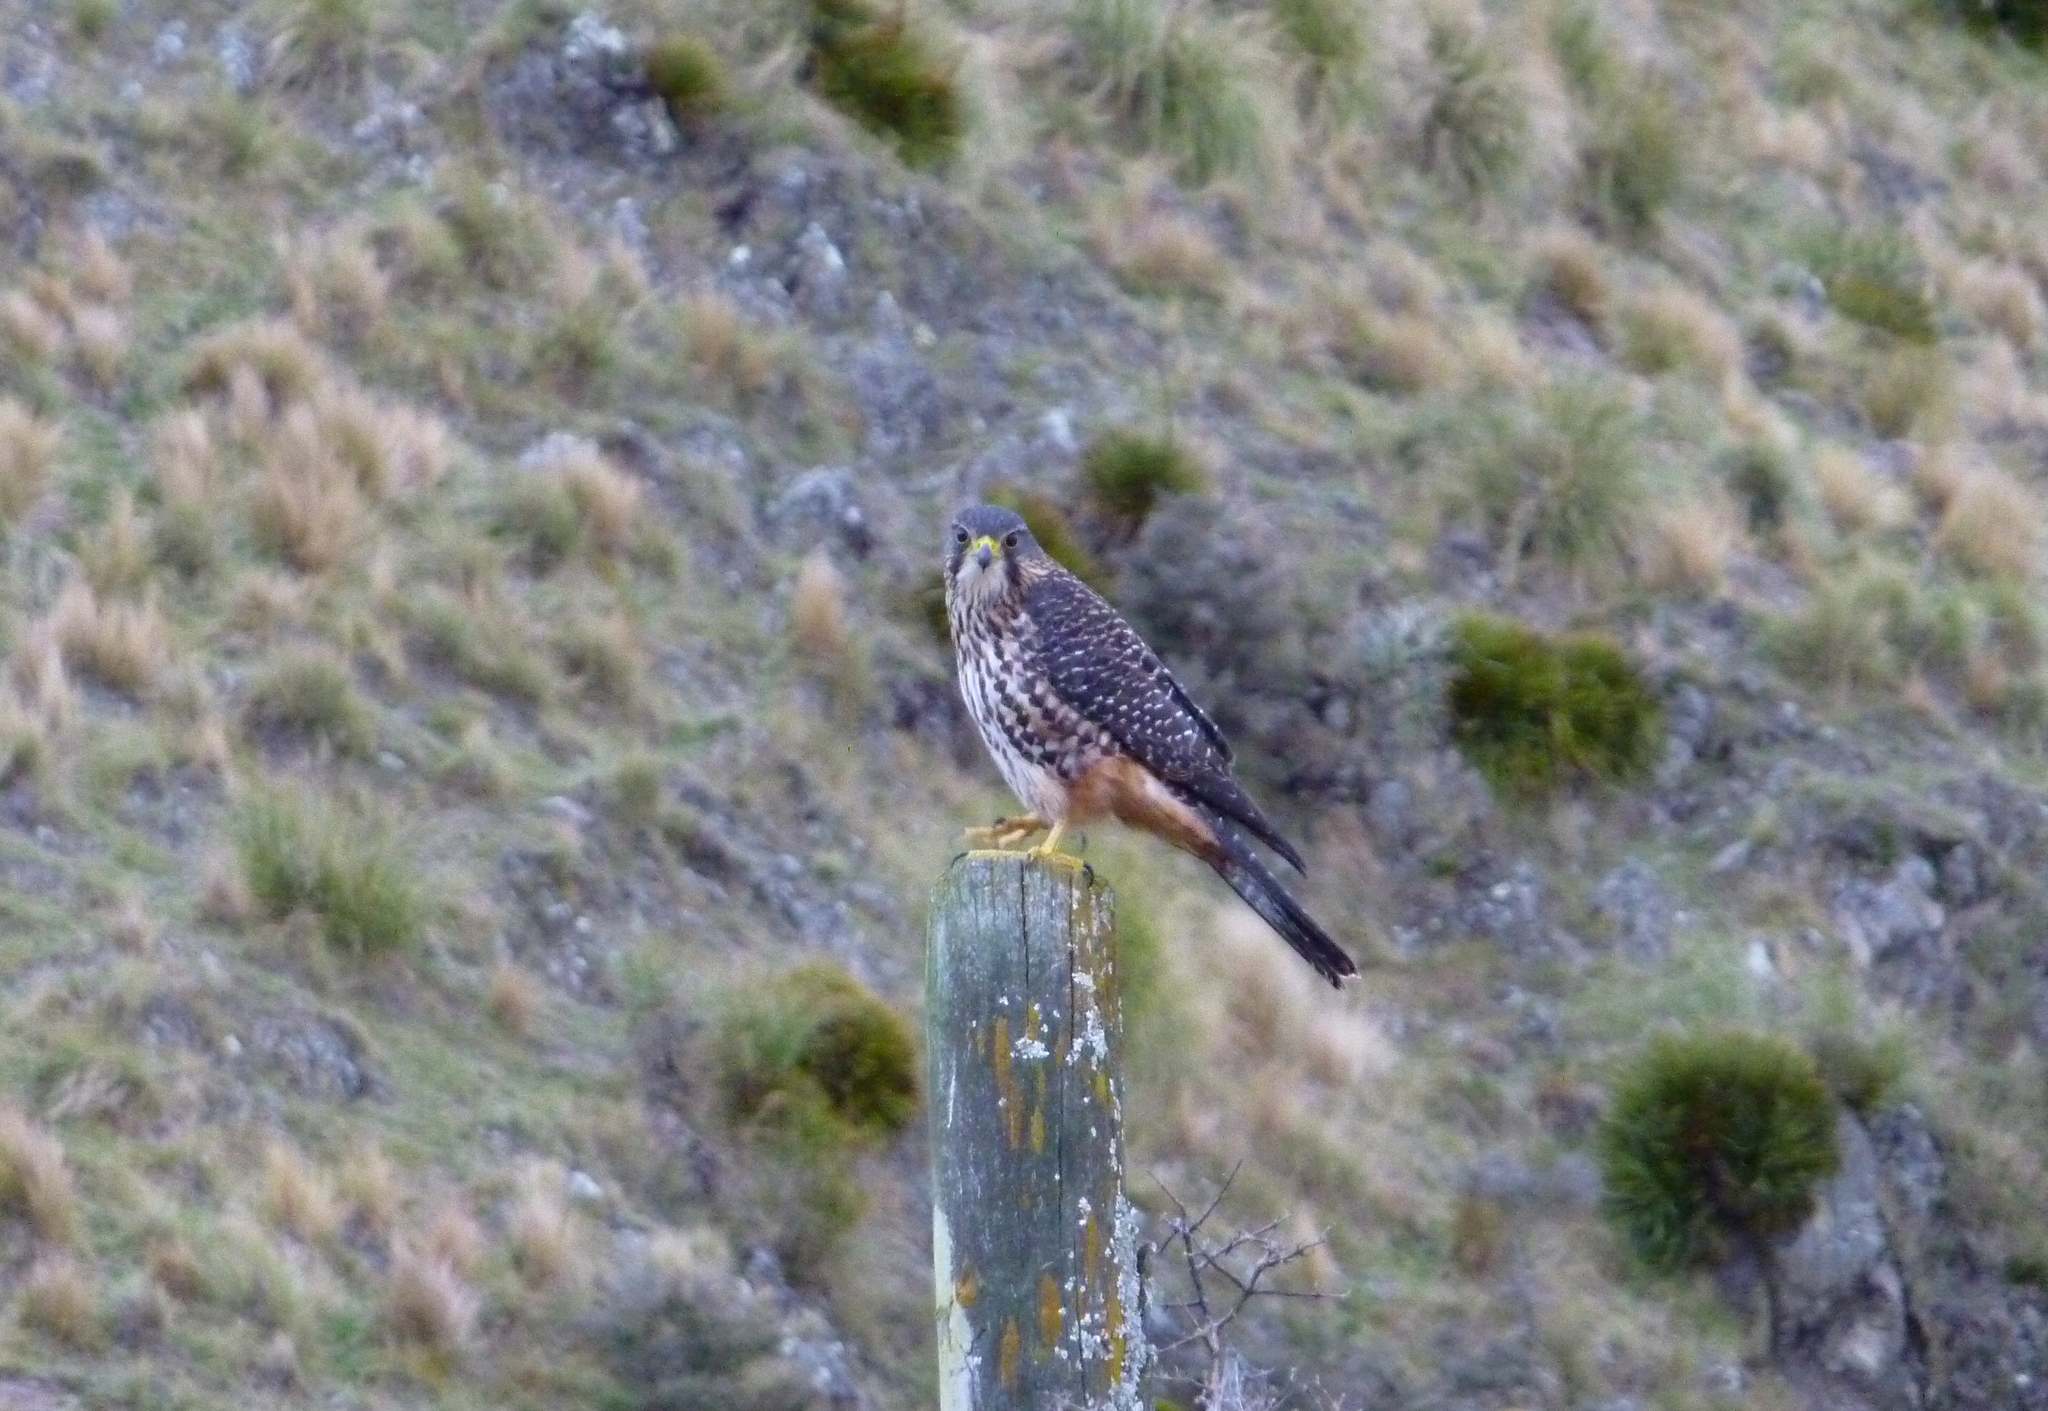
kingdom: Animalia
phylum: Chordata
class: Aves
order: Falconiformes
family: Falconidae
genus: Falco
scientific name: Falco novaeseelandiae
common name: New zealand falcon
